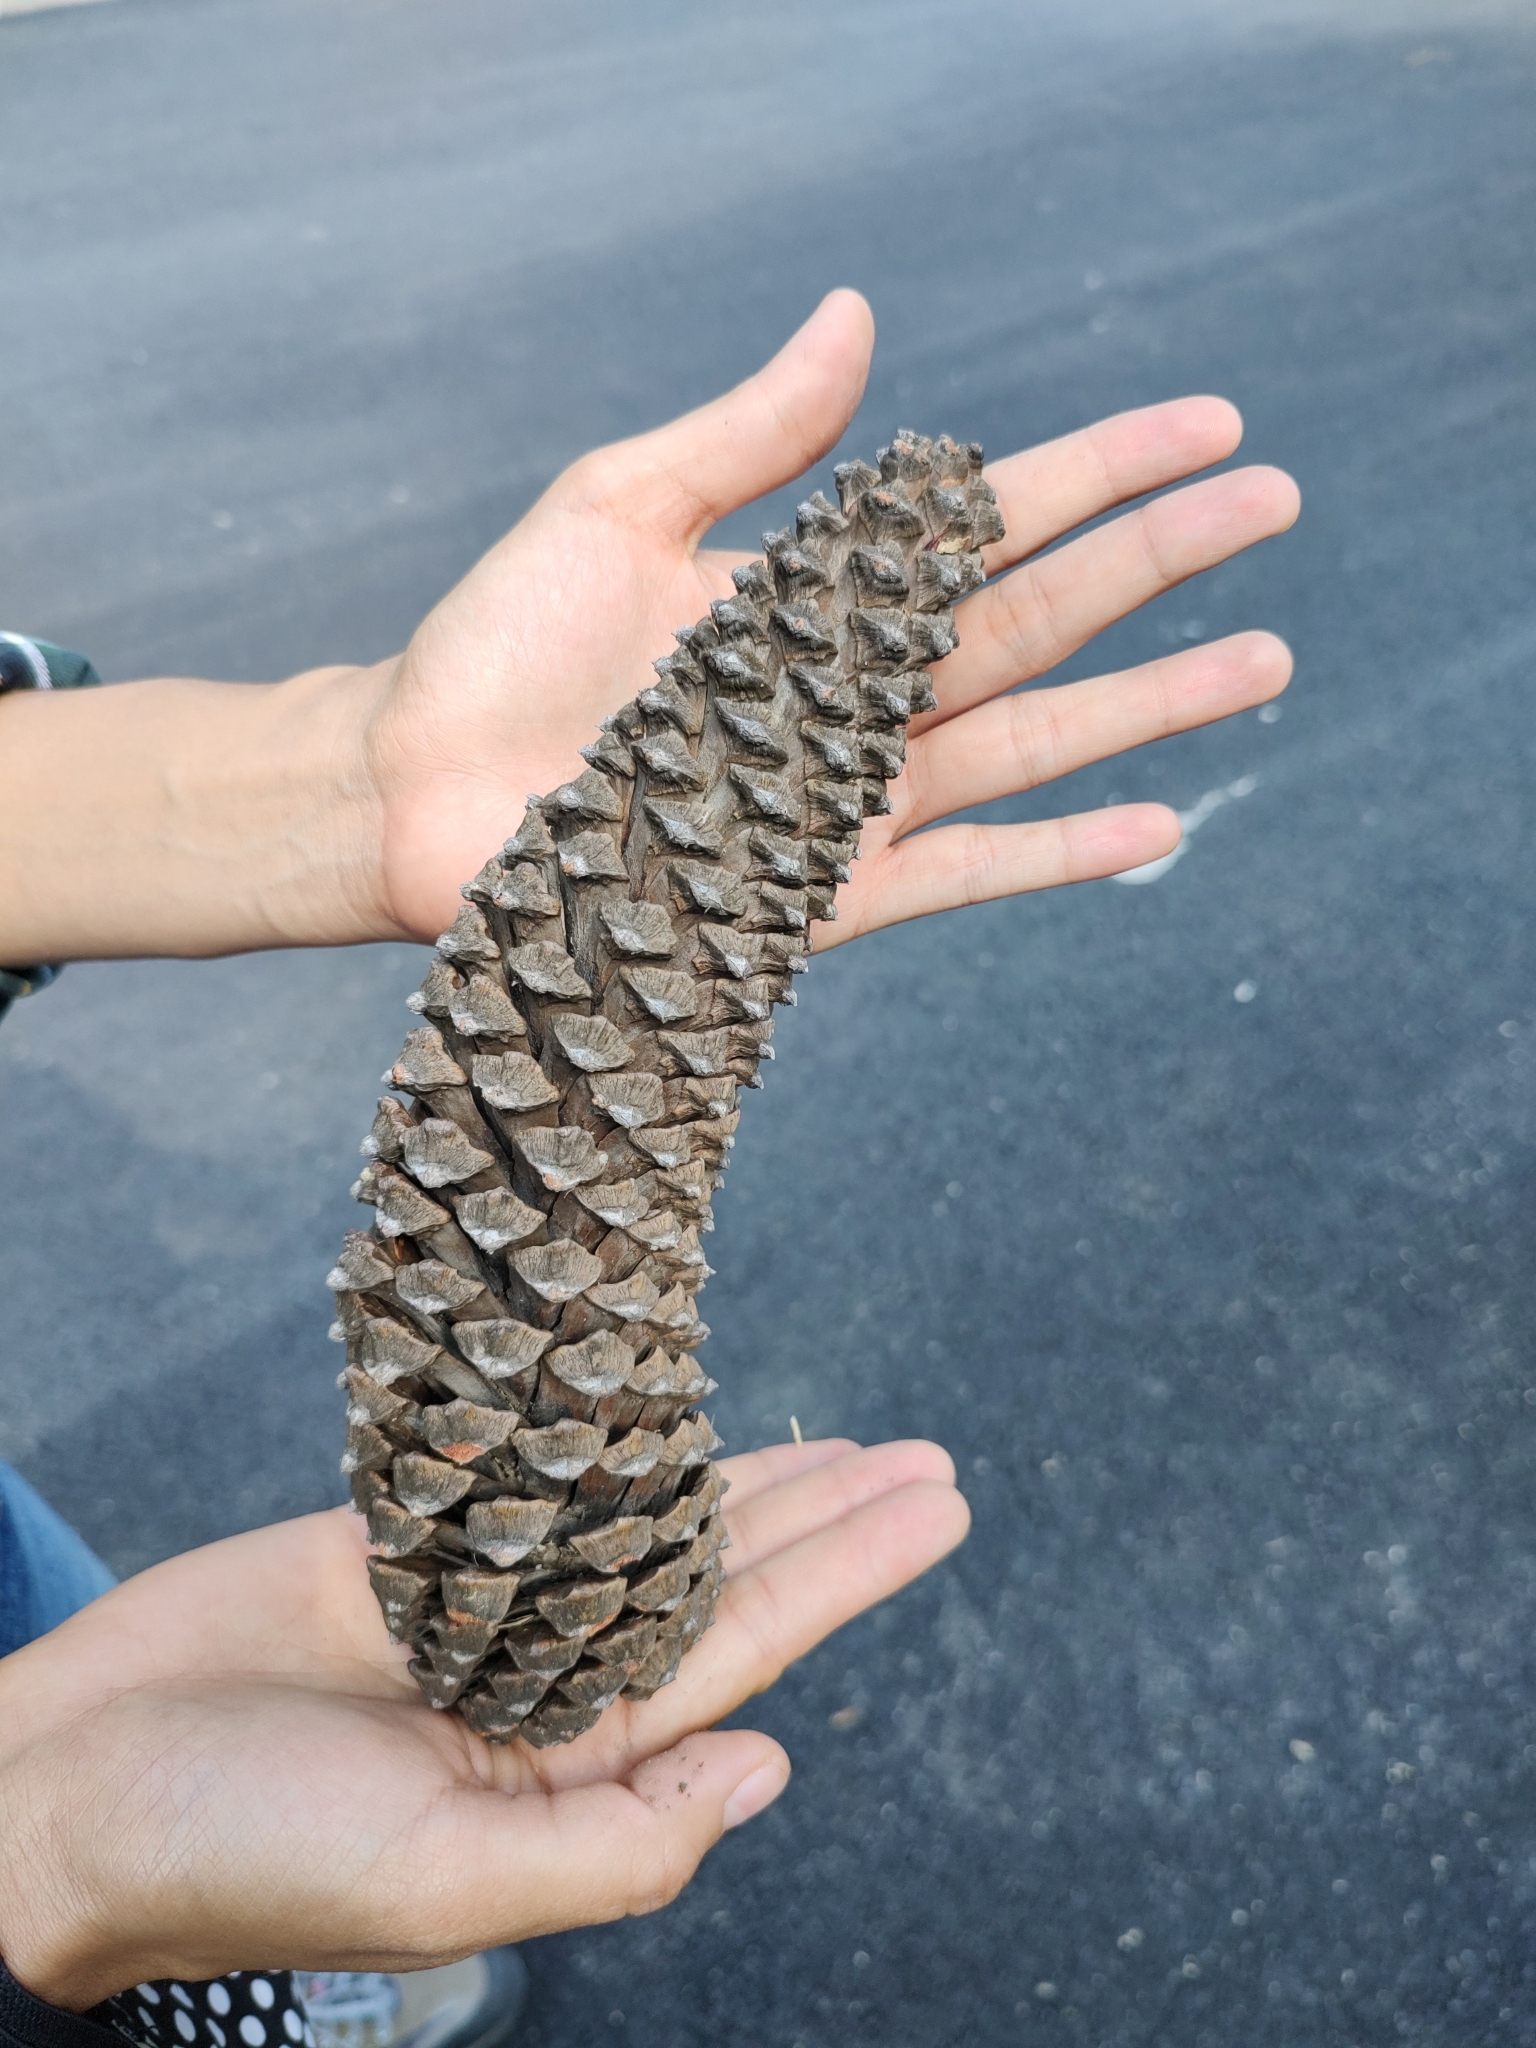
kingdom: Plantae
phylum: Tracheophyta
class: Pinopsida
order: Pinales
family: Pinaceae
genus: Pinus
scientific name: Pinus devoniana
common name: Michoacan pine
